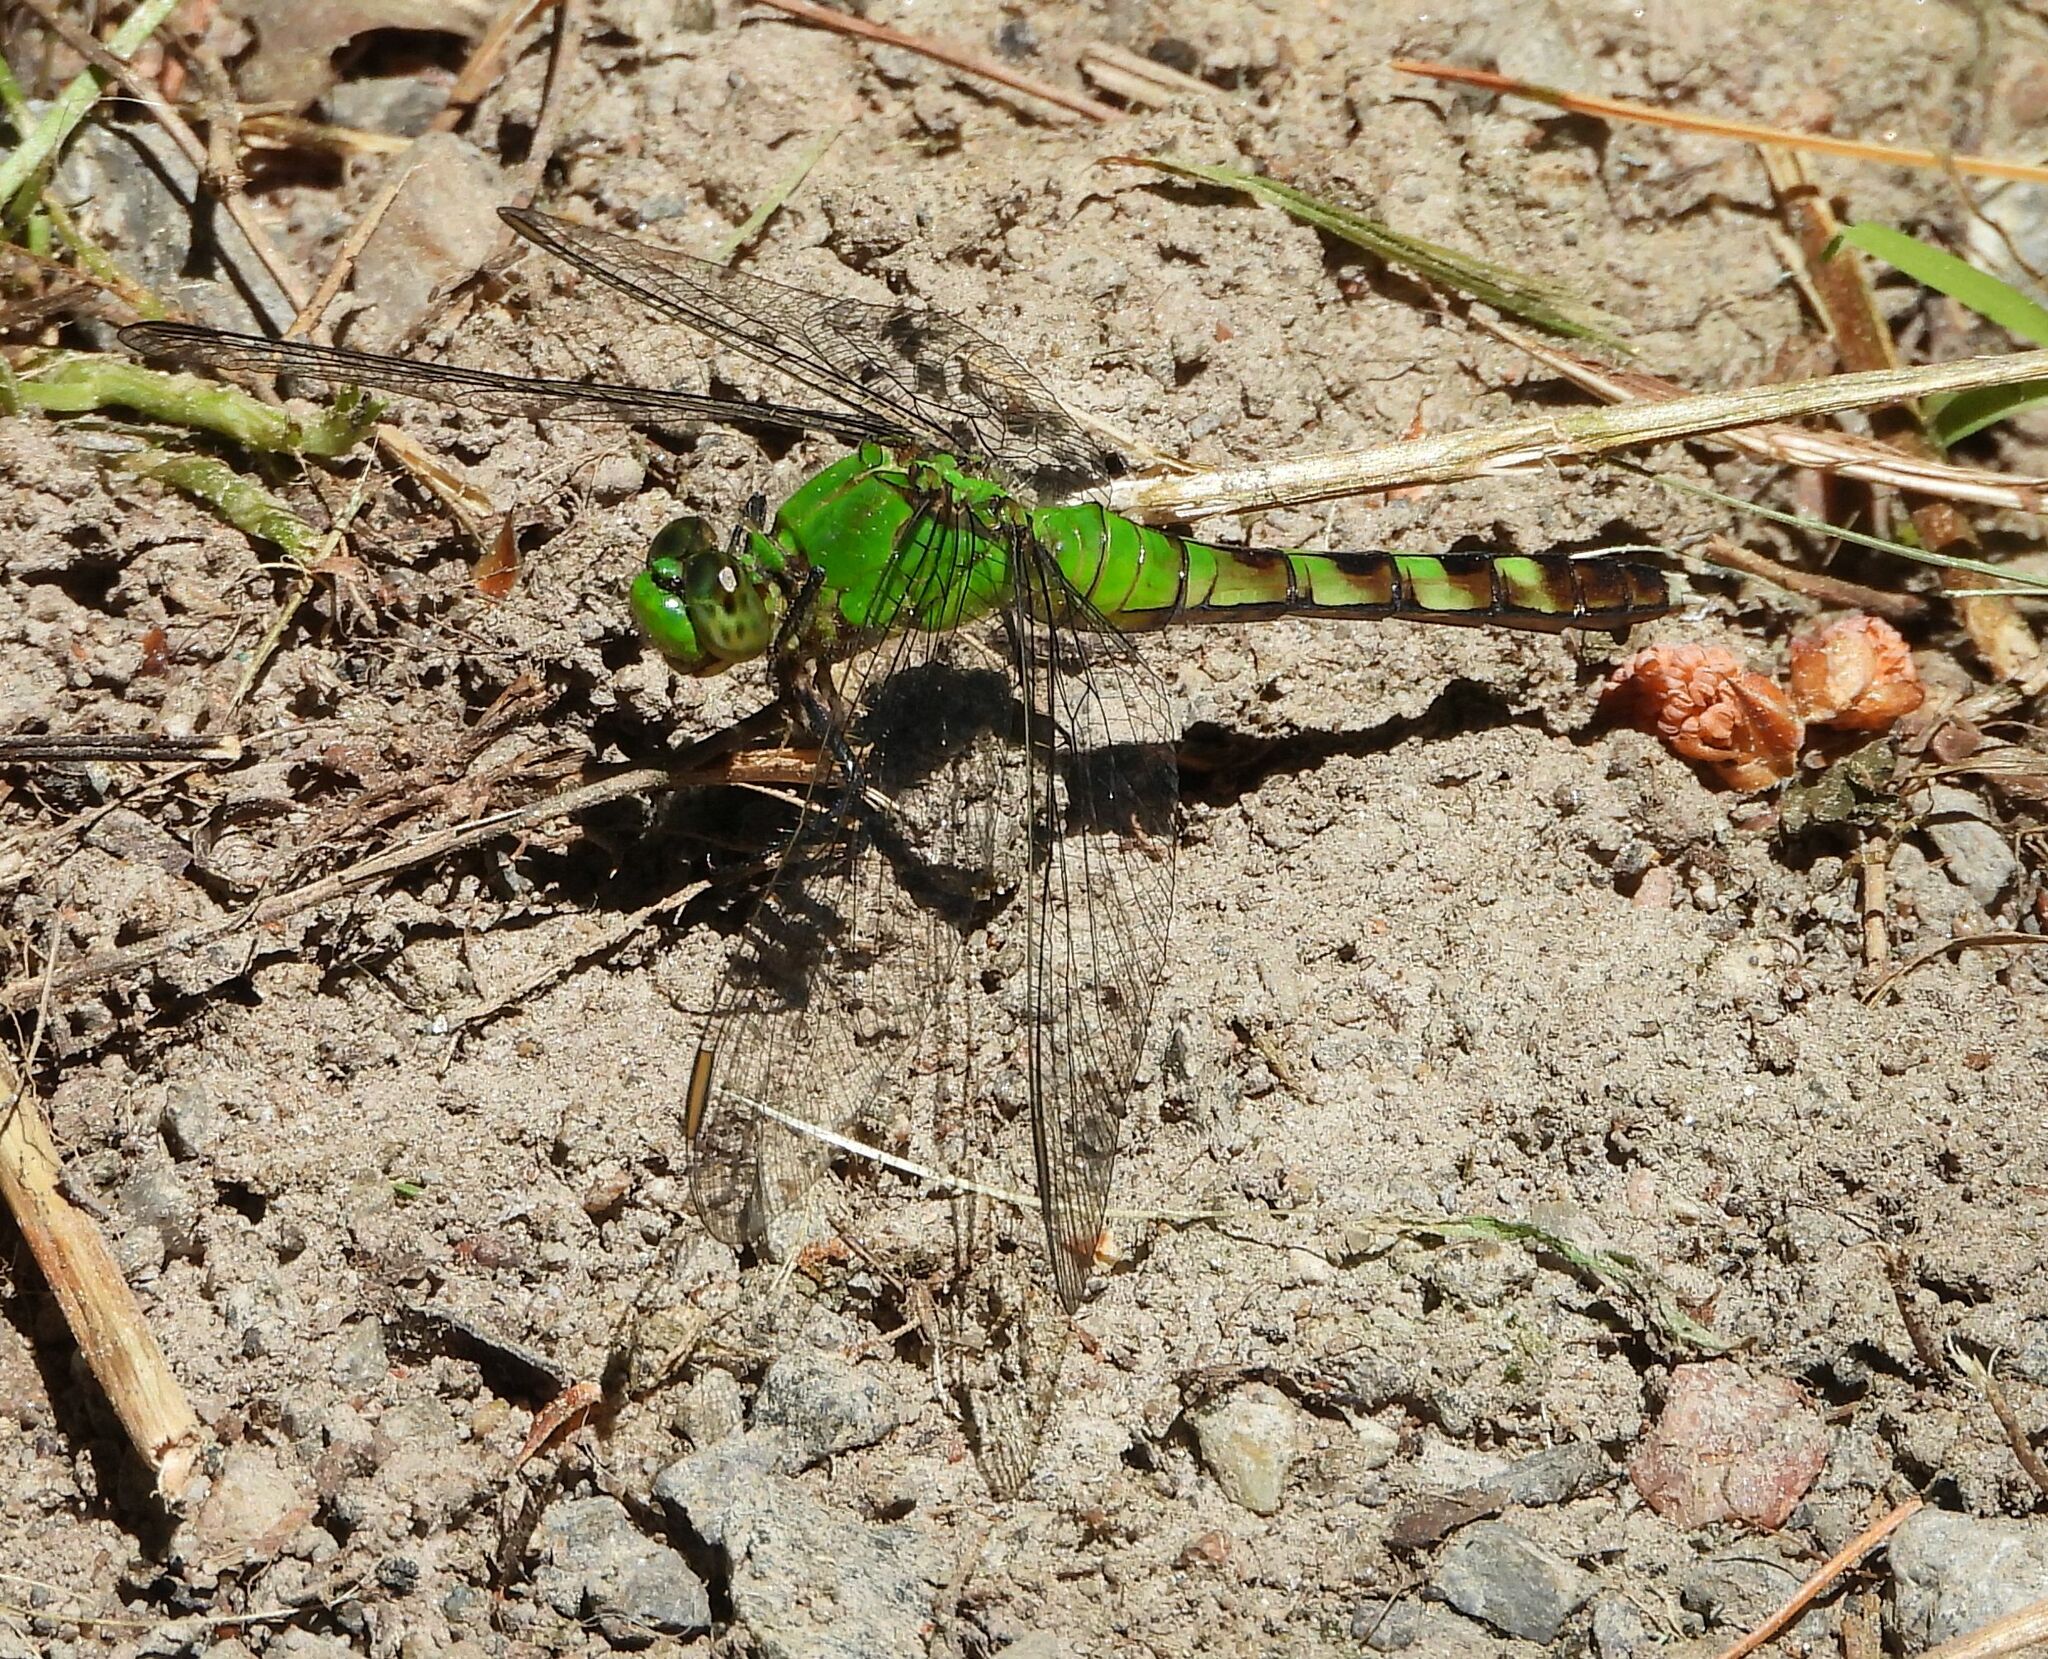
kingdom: Animalia
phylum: Arthropoda
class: Insecta
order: Odonata
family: Libellulidae
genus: Erythemis
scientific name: Erythemis simplicicollis
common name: Eastern pondhawk
